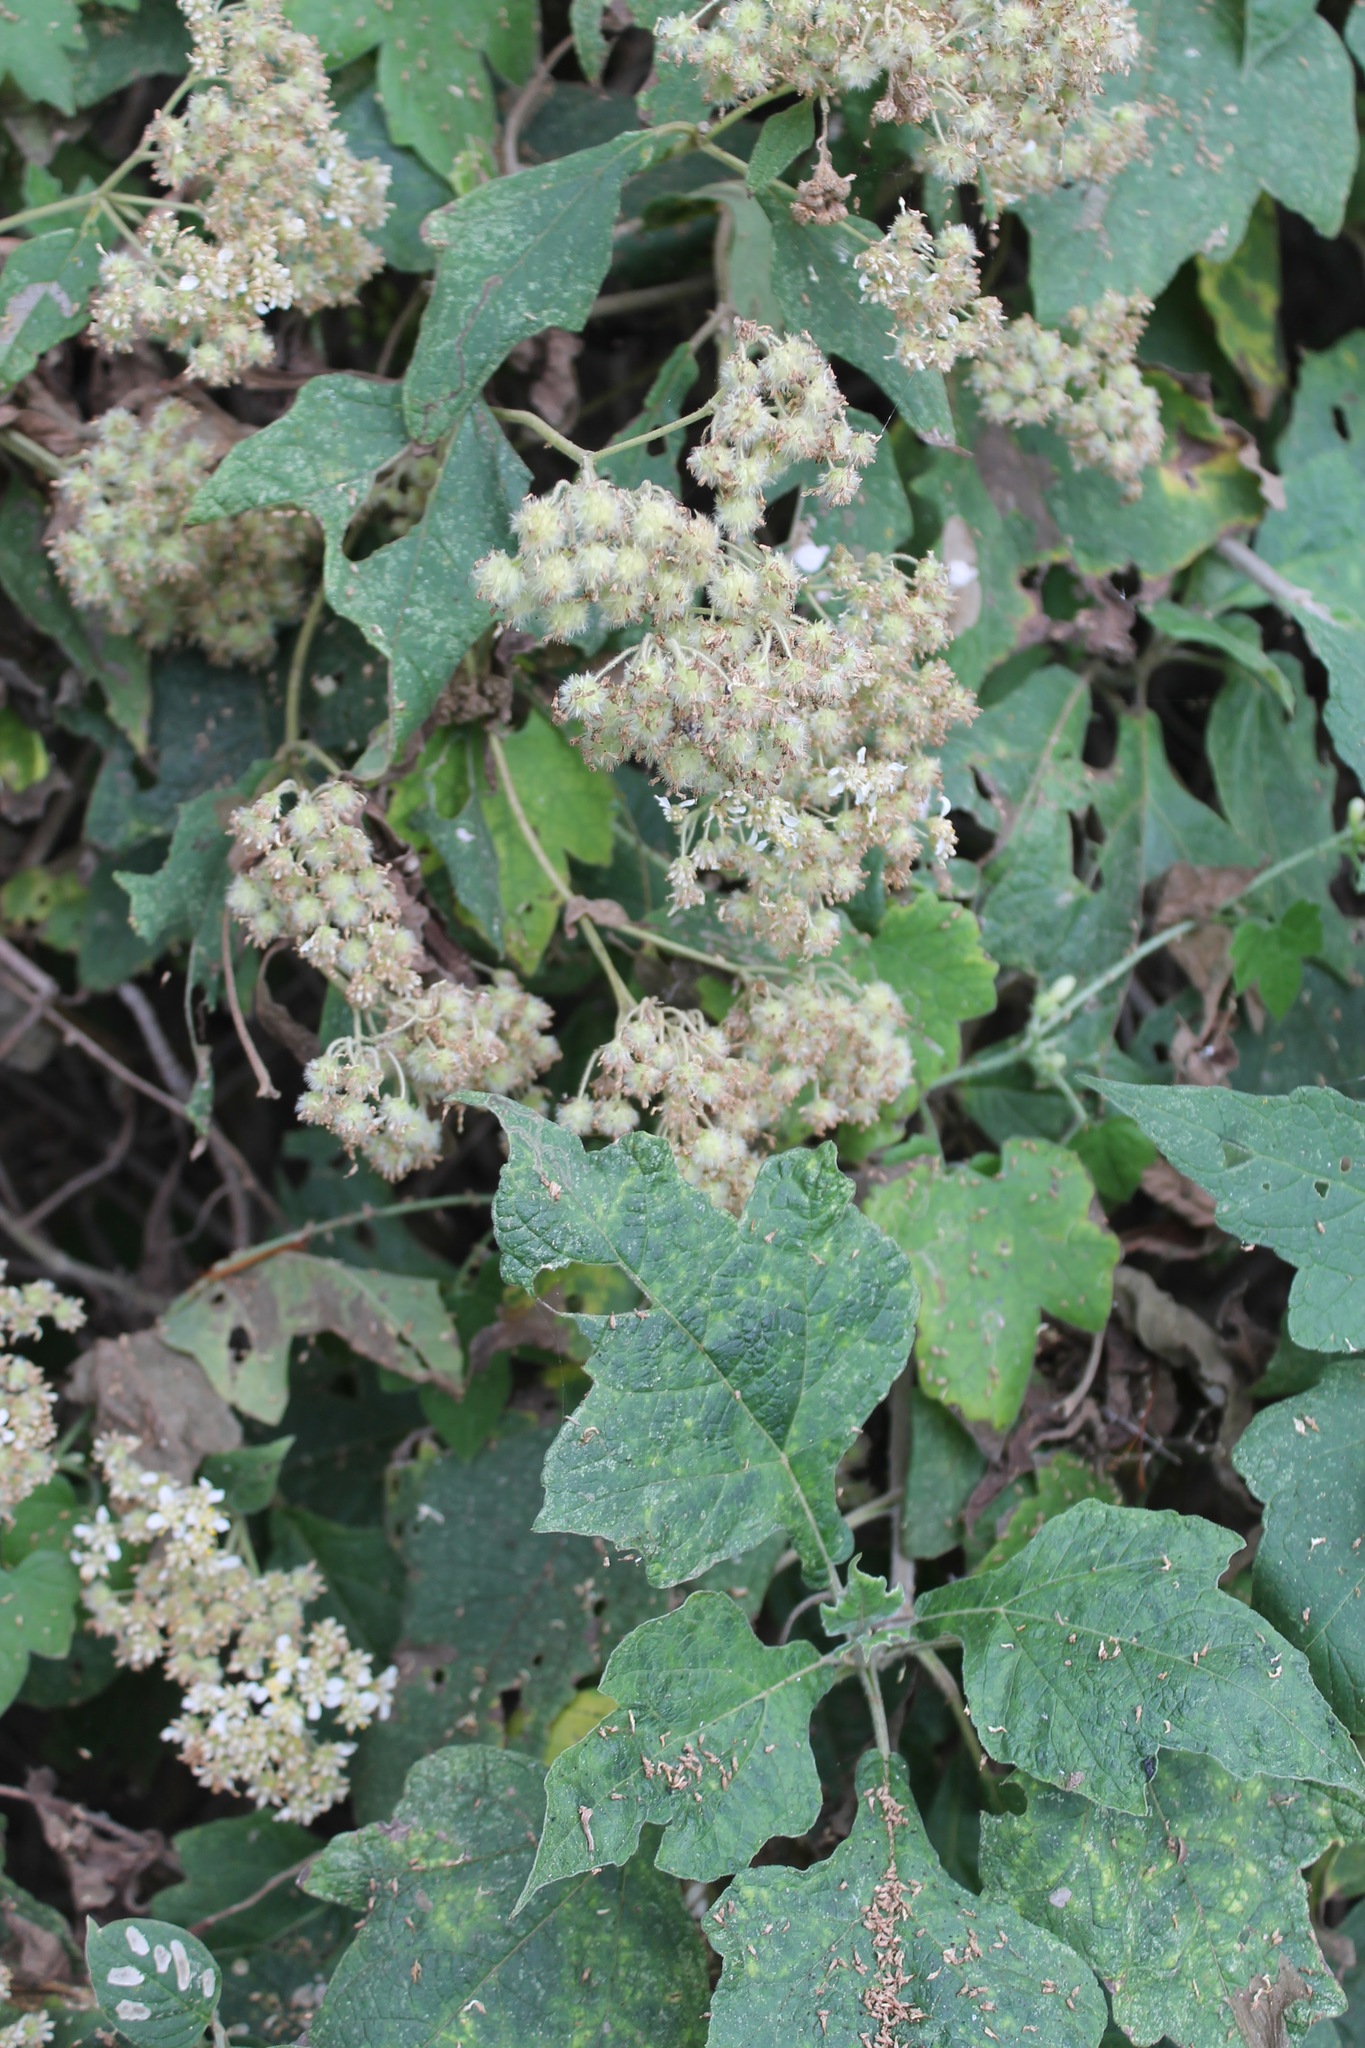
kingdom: Plantae
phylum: Tracheophyta
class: Magnoliopsida
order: Asterales
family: Asteraceae
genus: Montanoa
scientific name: Montanoa tomentosa
